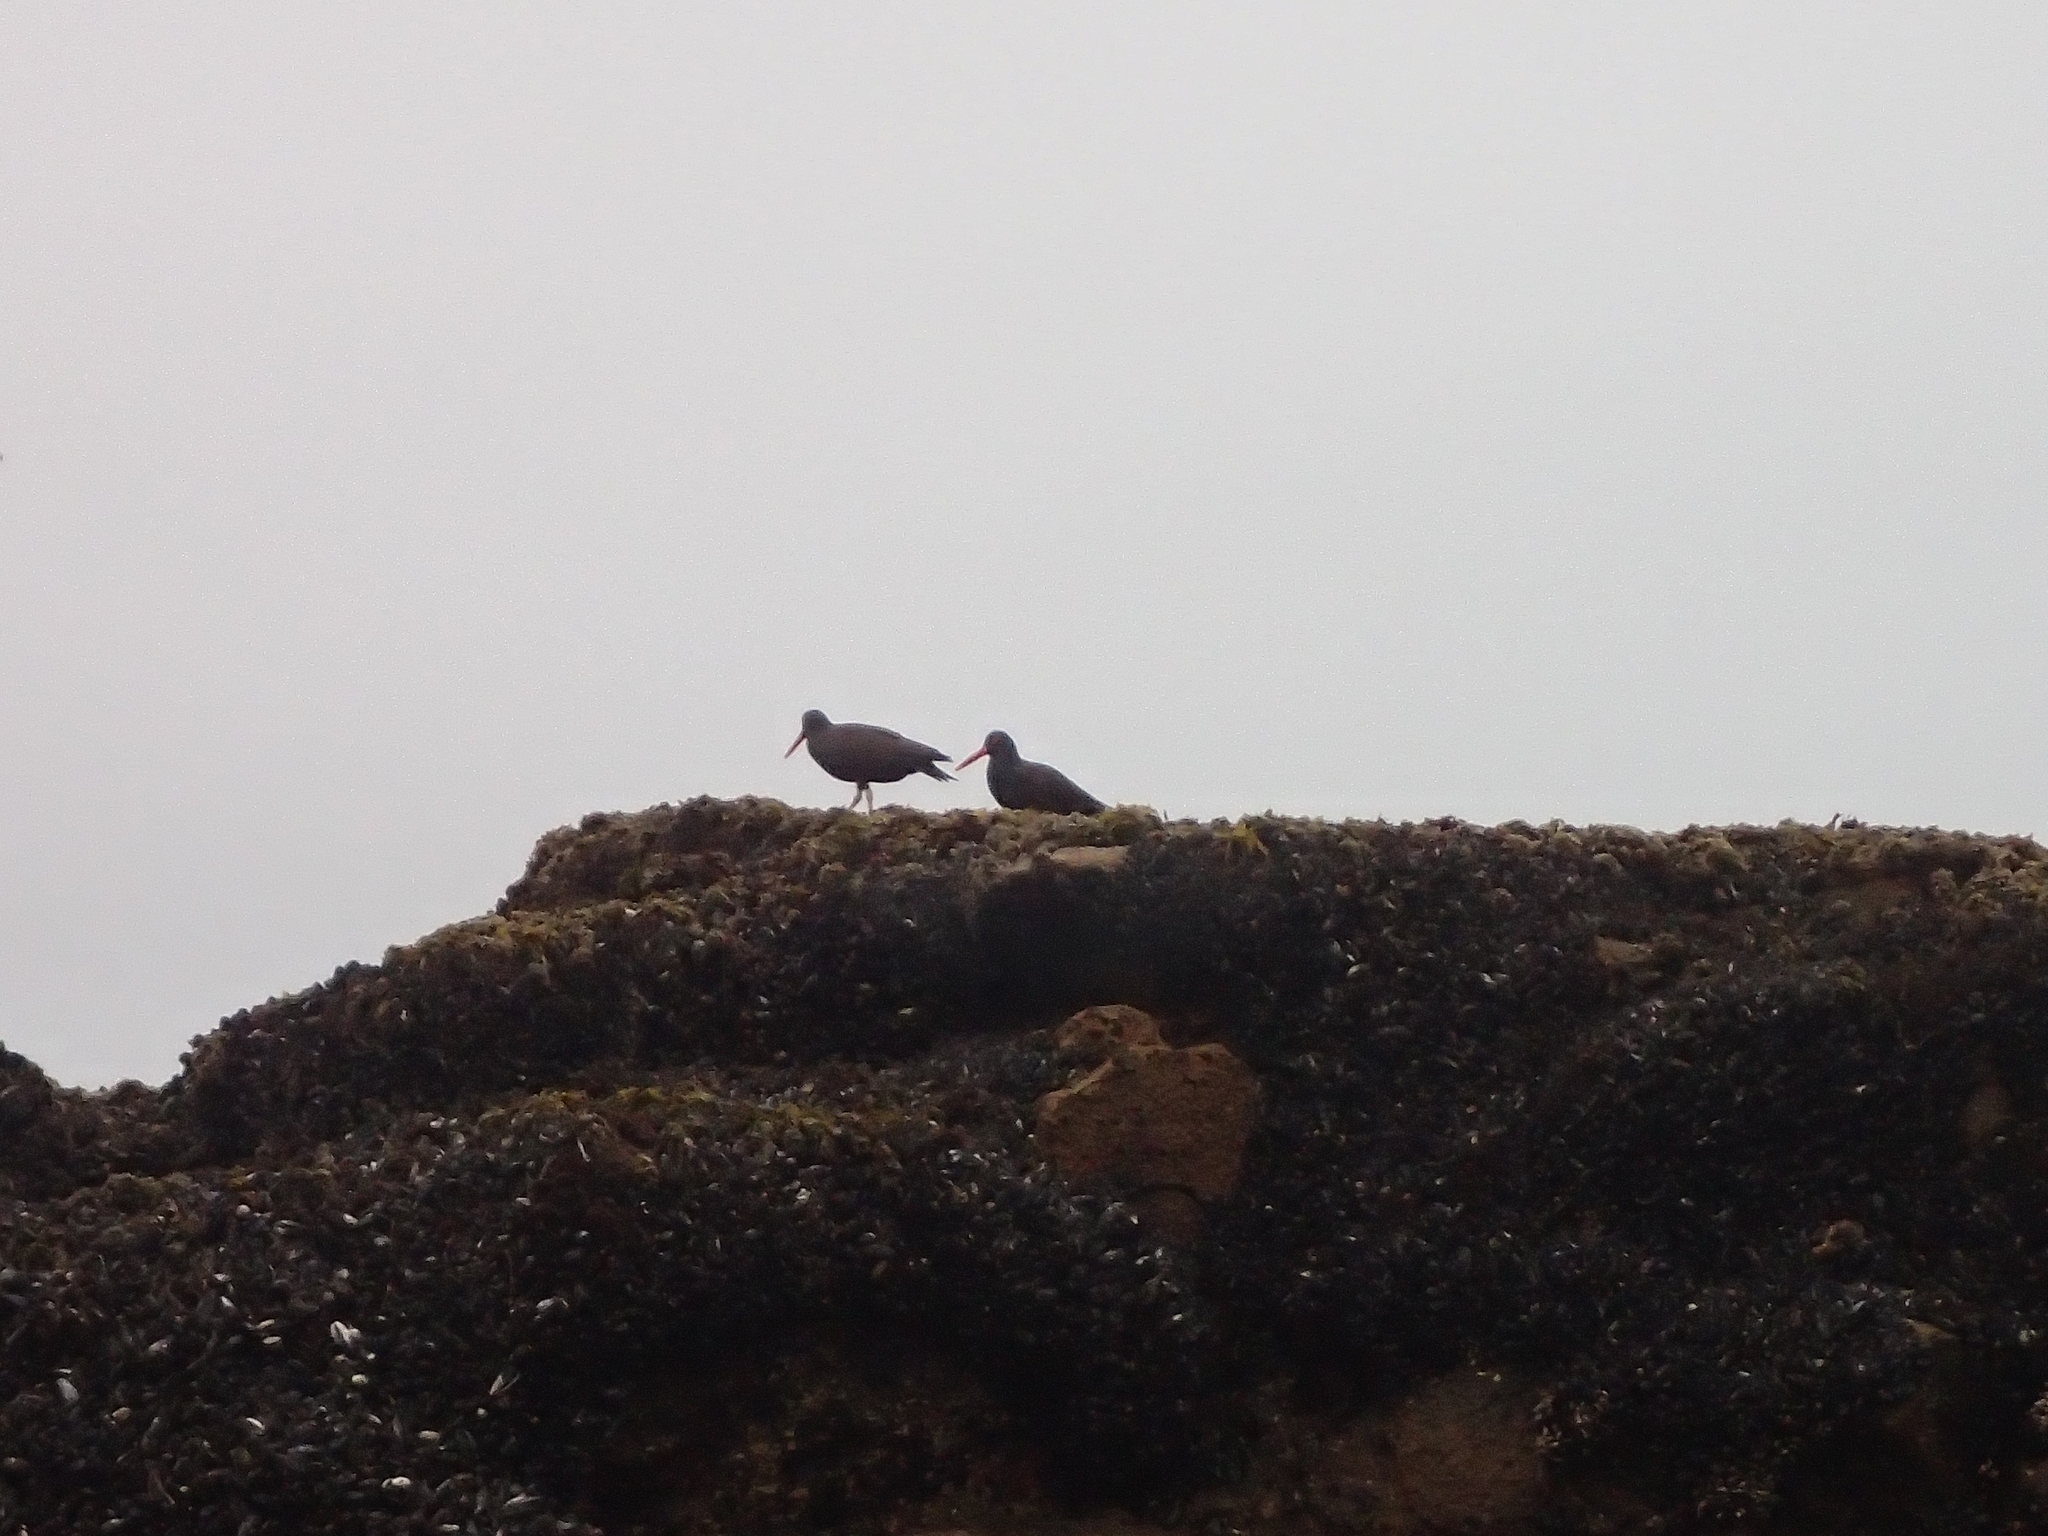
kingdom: Animalia
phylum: Chordata
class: Aves
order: Charadriiformes
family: Haematopodidae
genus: Haematopus
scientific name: Haematopus bachmani
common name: Black oystercatcher
